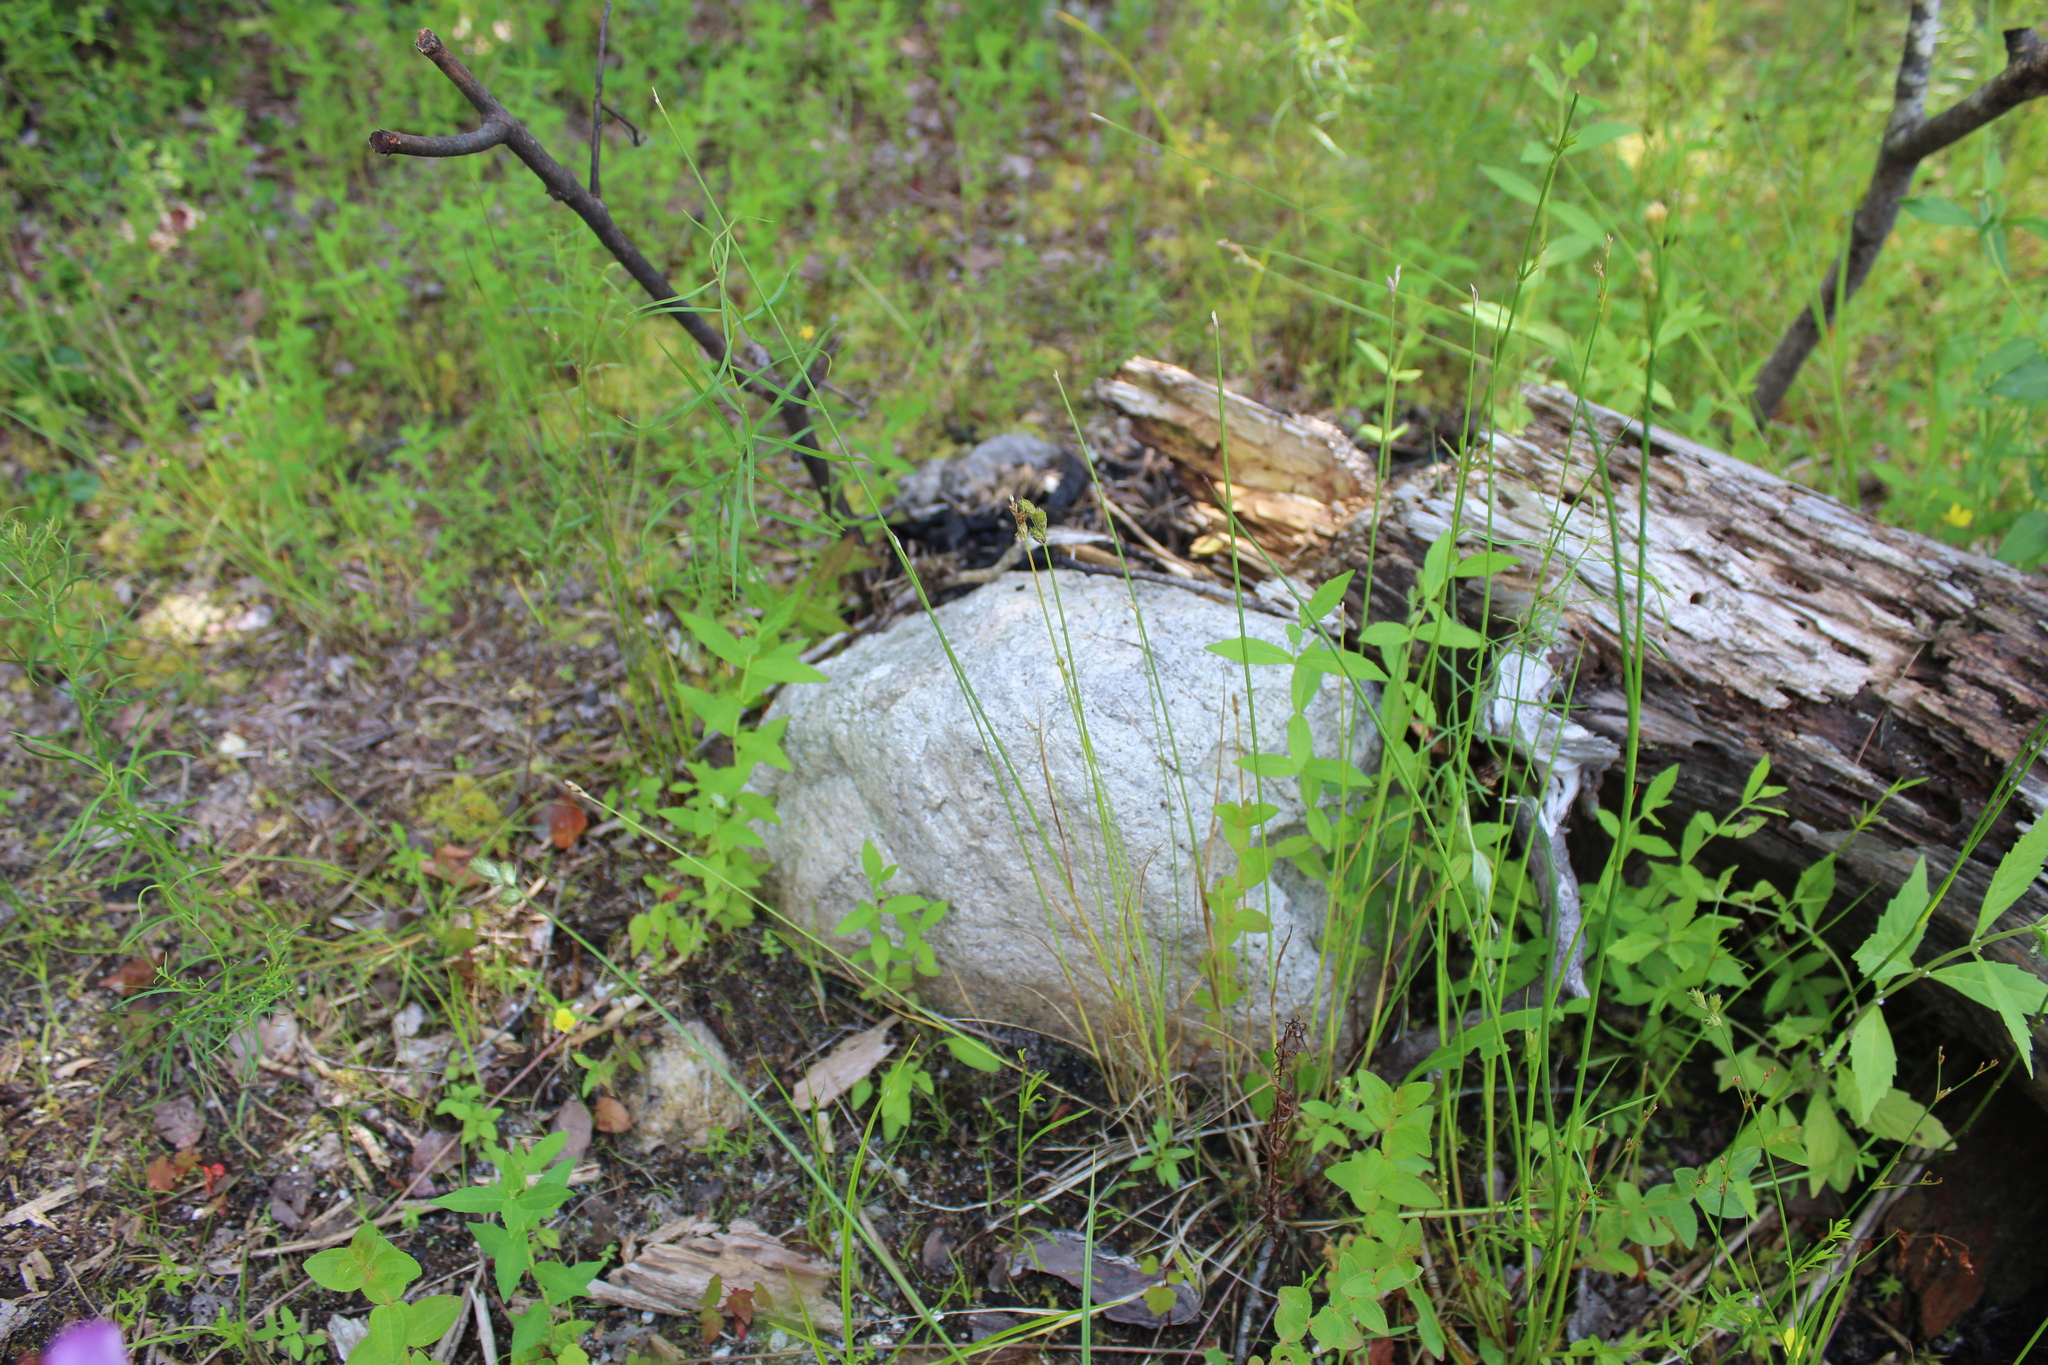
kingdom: Plantae
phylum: Tracheophyta
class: Liliopsida
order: Poales
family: Cyperaceae
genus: Carex
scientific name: Carex longii
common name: Long's sedge
